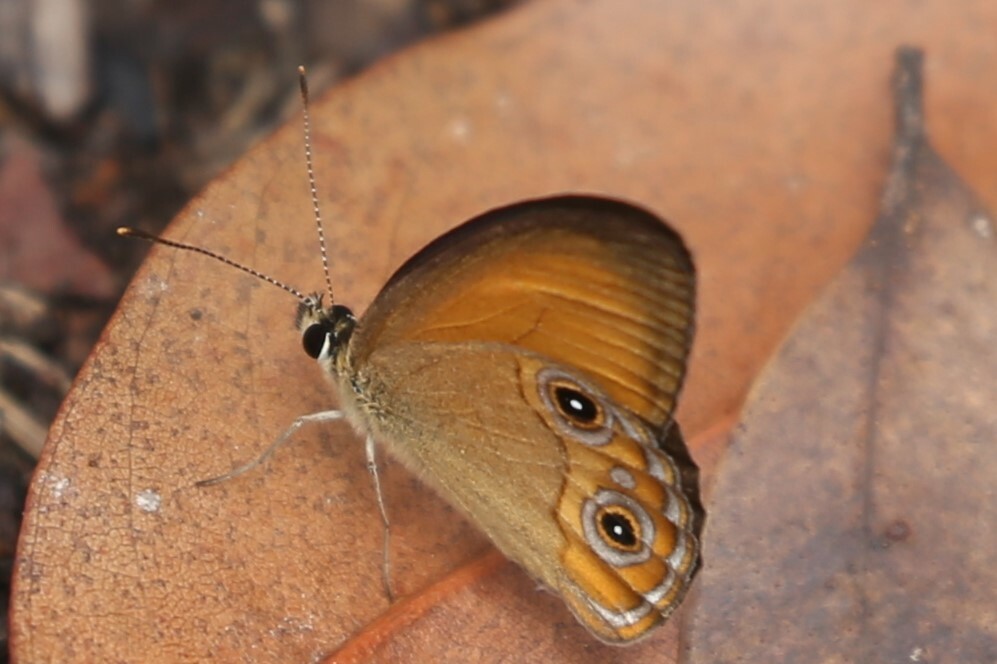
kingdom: Animalia
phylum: Arthropoda
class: Insecta
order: Lepidoptera
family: Nymphalidae
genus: Hypocysta
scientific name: Hypocysta adiante
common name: Orange ringlet
